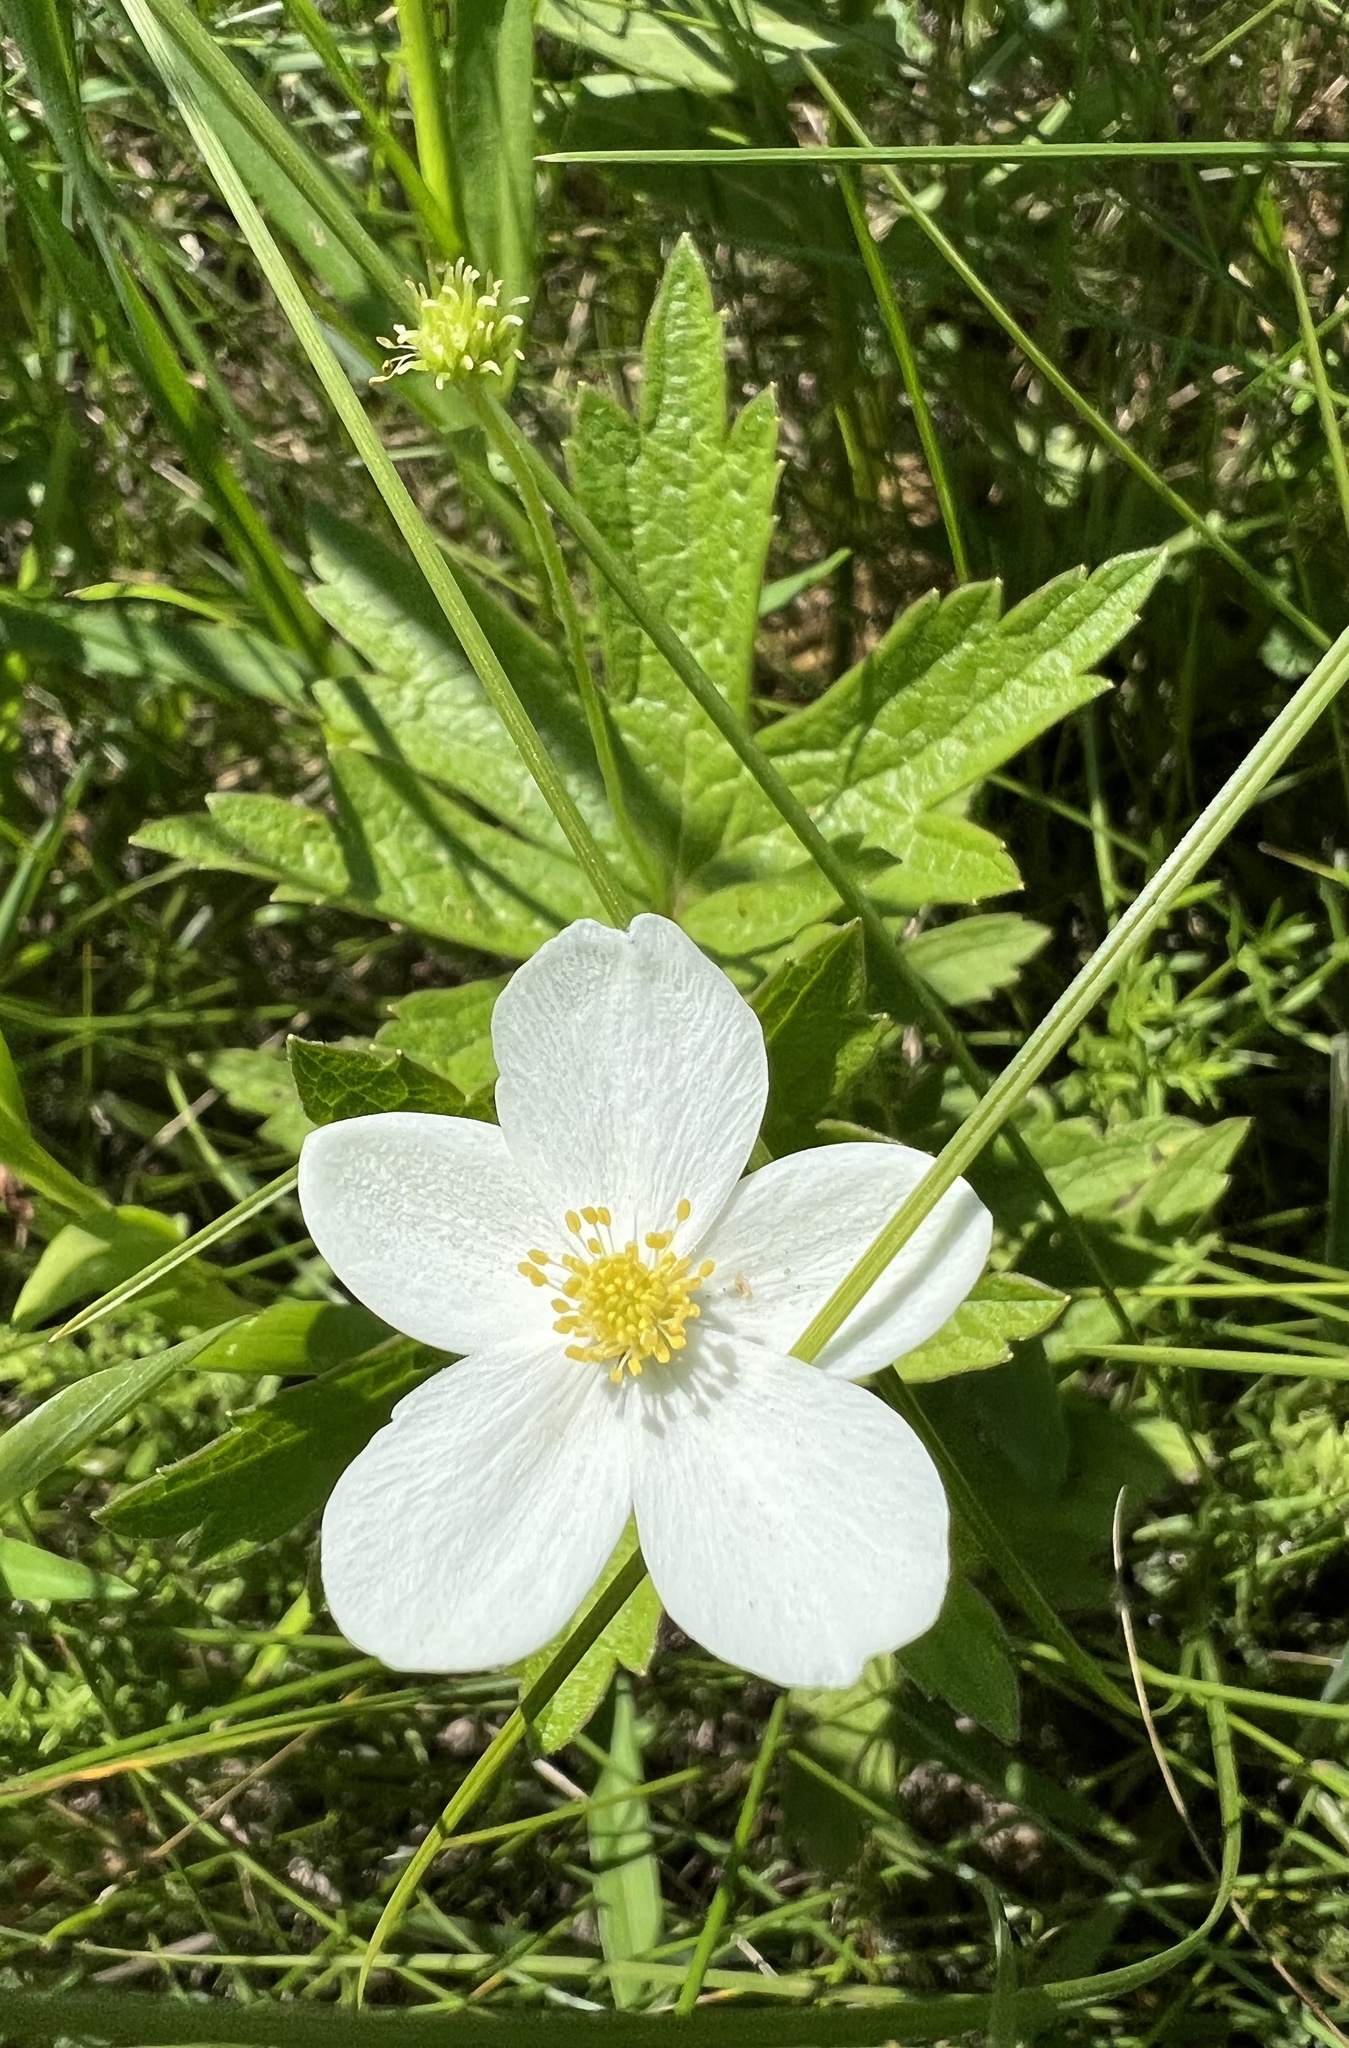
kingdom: Plantae
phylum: Tracheophyta
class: Magnoliopsida
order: Ranunculales
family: Ranunculaceae
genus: Anemonastrum
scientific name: Anemonastrum canadense
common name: Canada anemone
